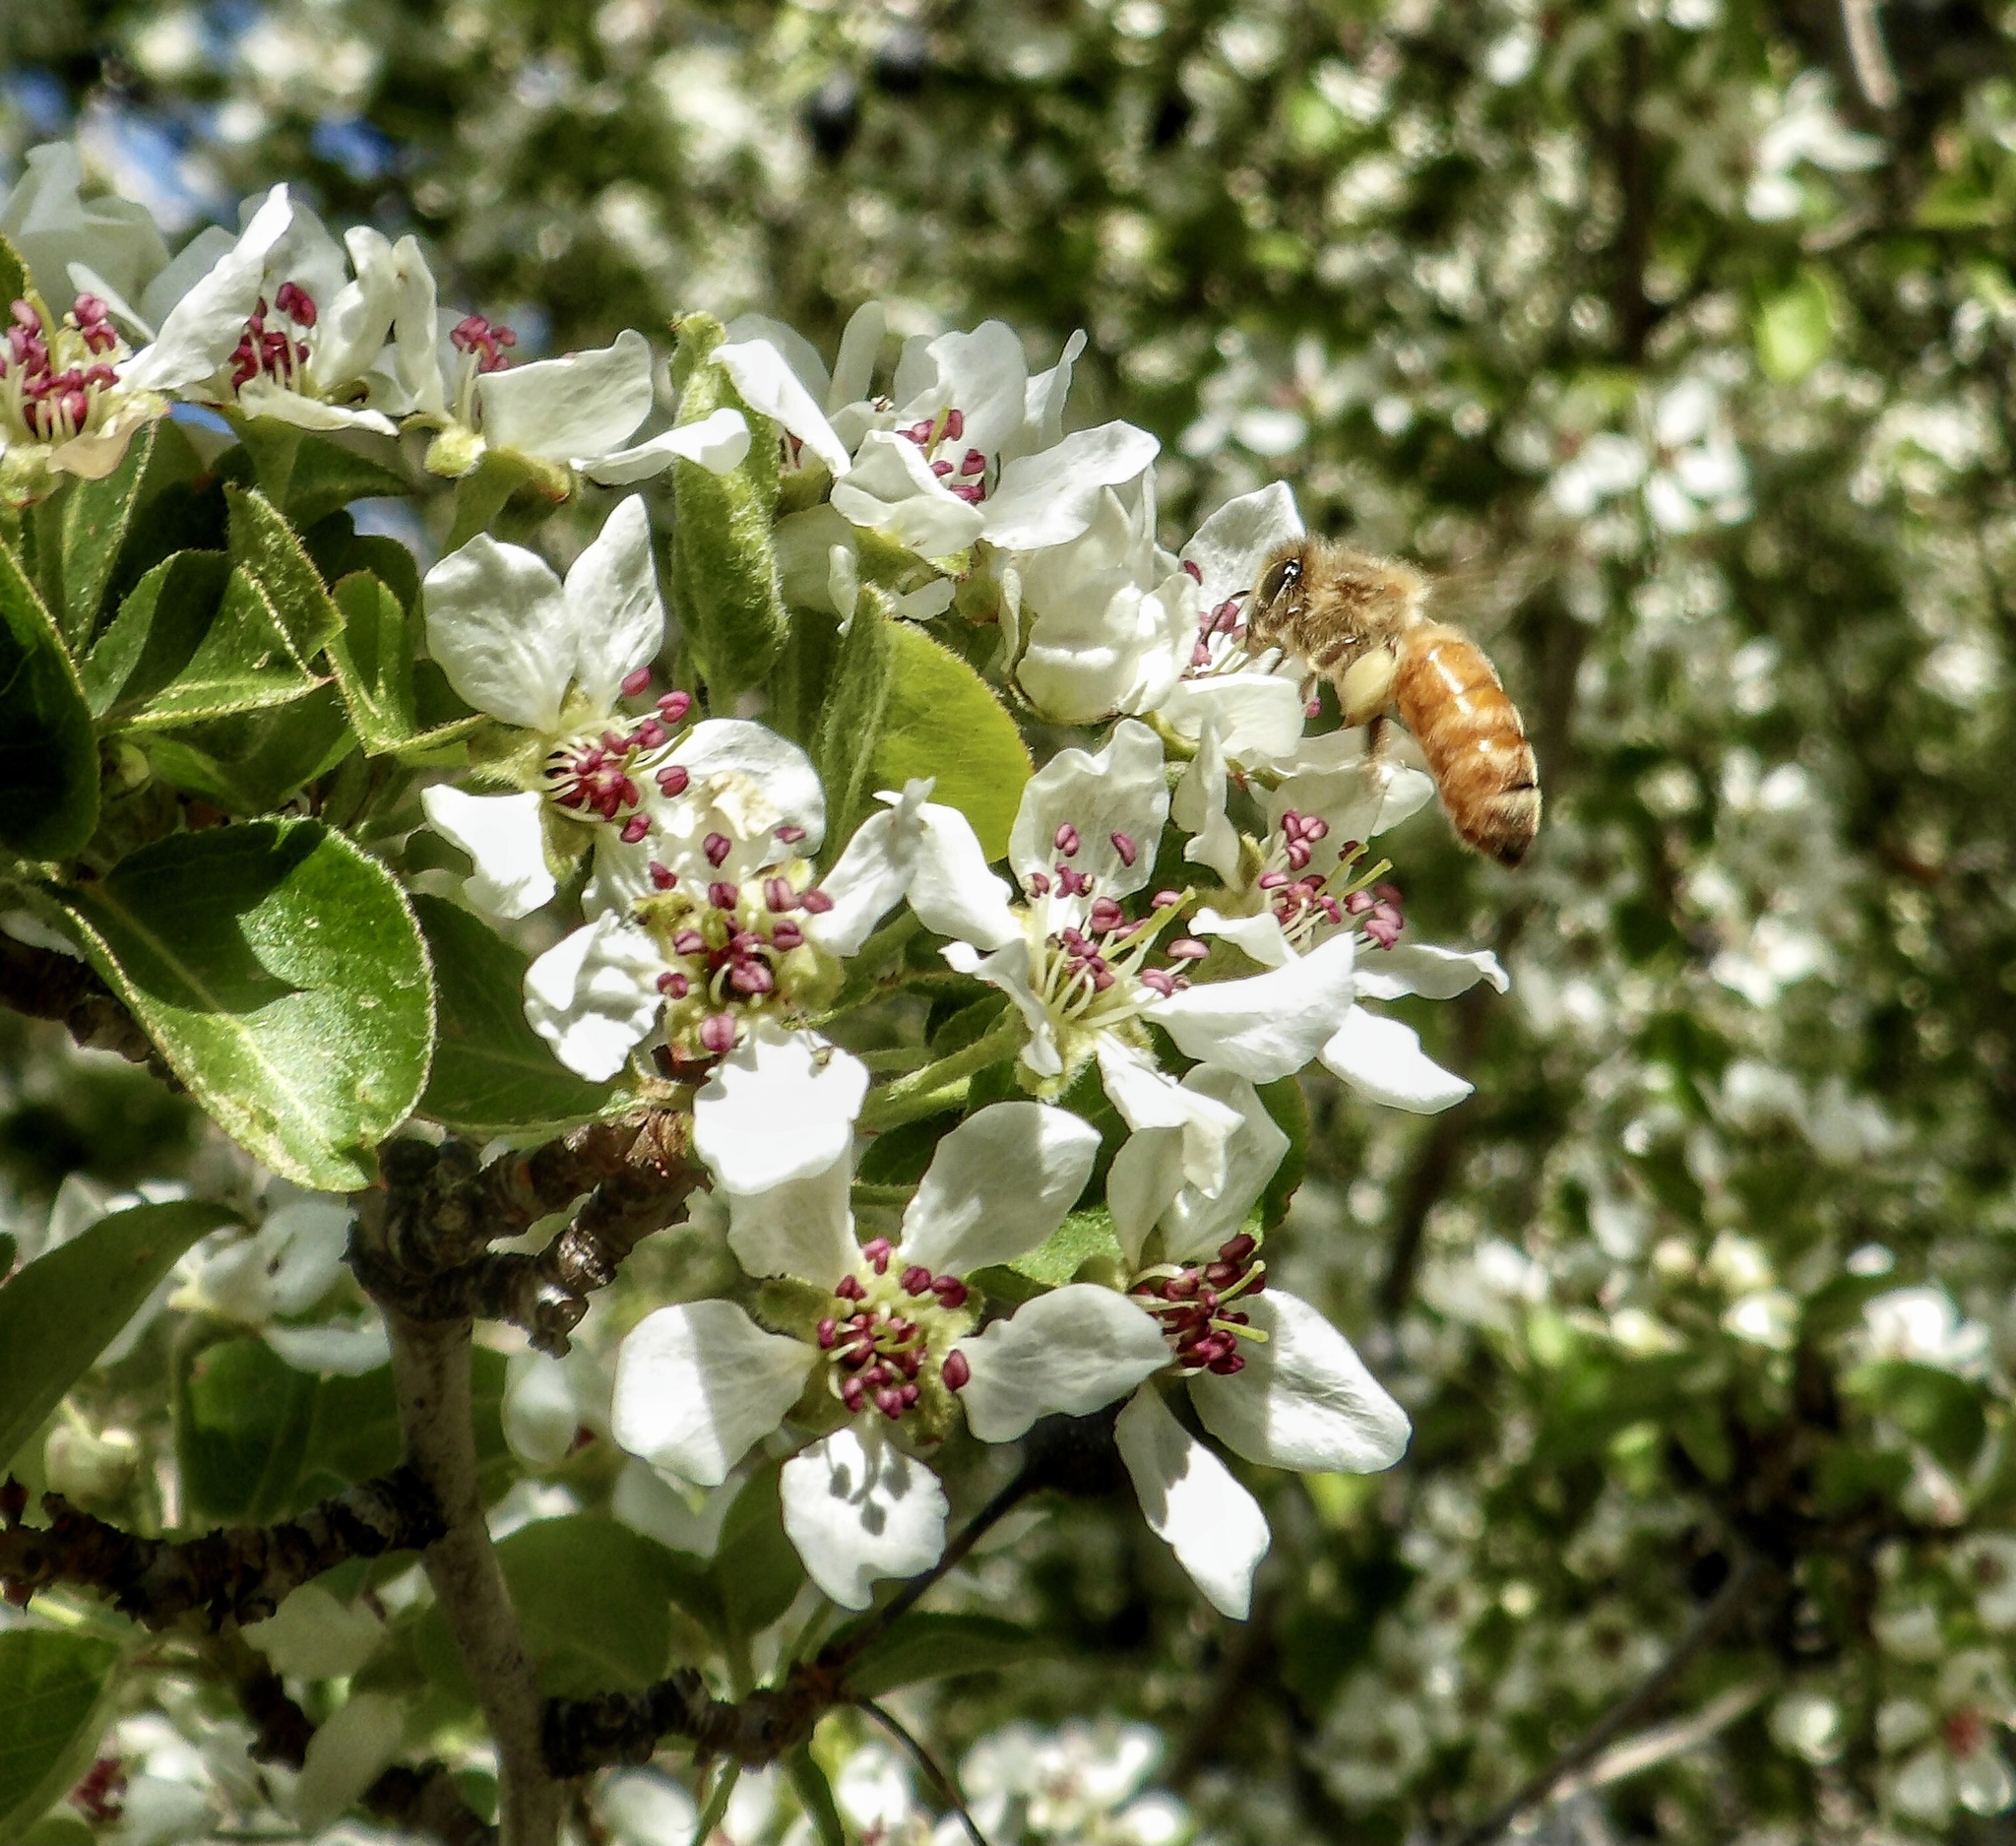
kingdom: Animalia
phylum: Arthropoda
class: Insecta
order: Hymenoptera
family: Apidae
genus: Apis
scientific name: Apis mellifera
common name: Honey bee
